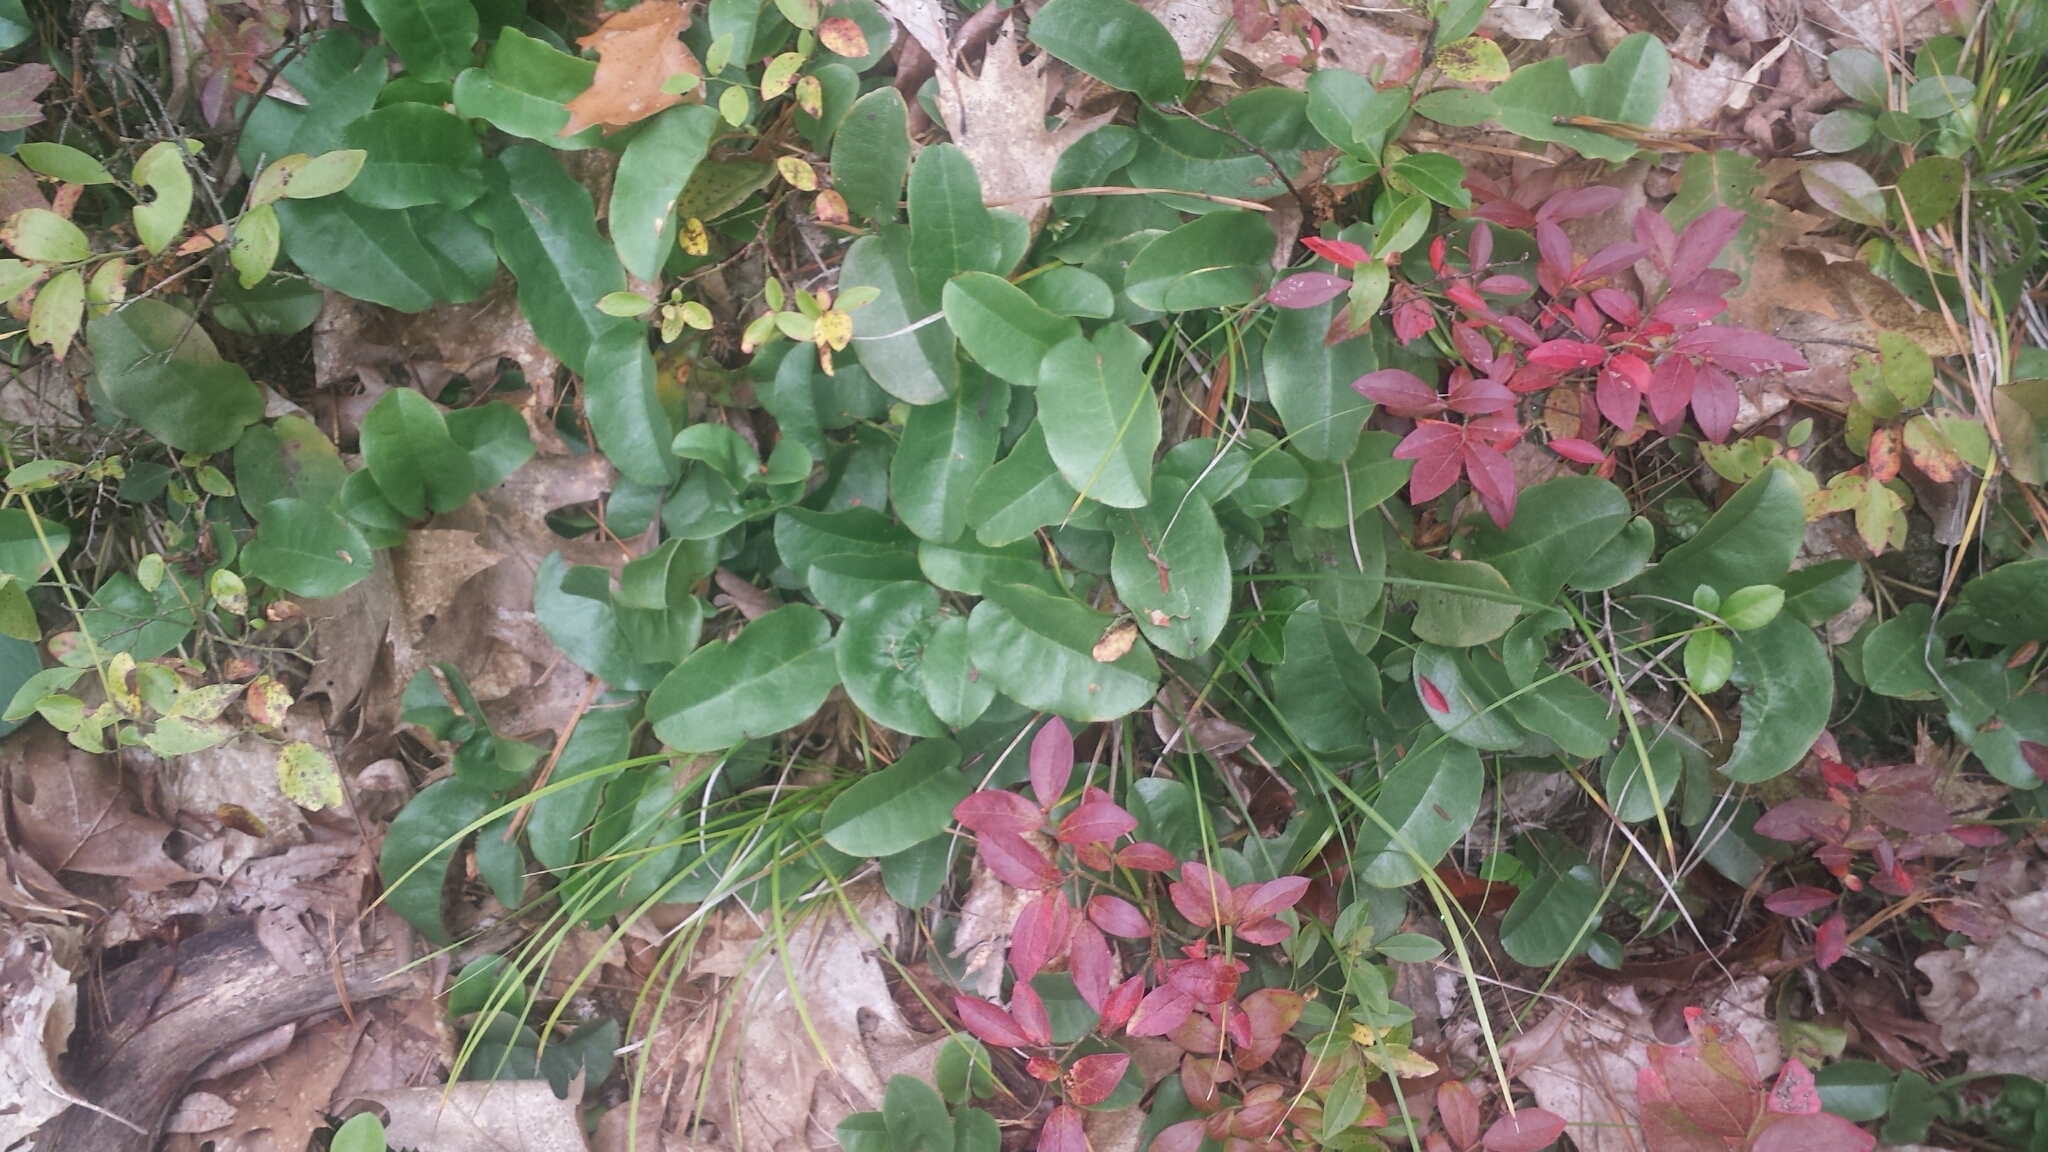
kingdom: Plantae
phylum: Tracheophyta
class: Magnoliopsida
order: Ericales
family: Ericaceae
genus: Epigaea
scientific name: Epigaea repens
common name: Gravelroot
